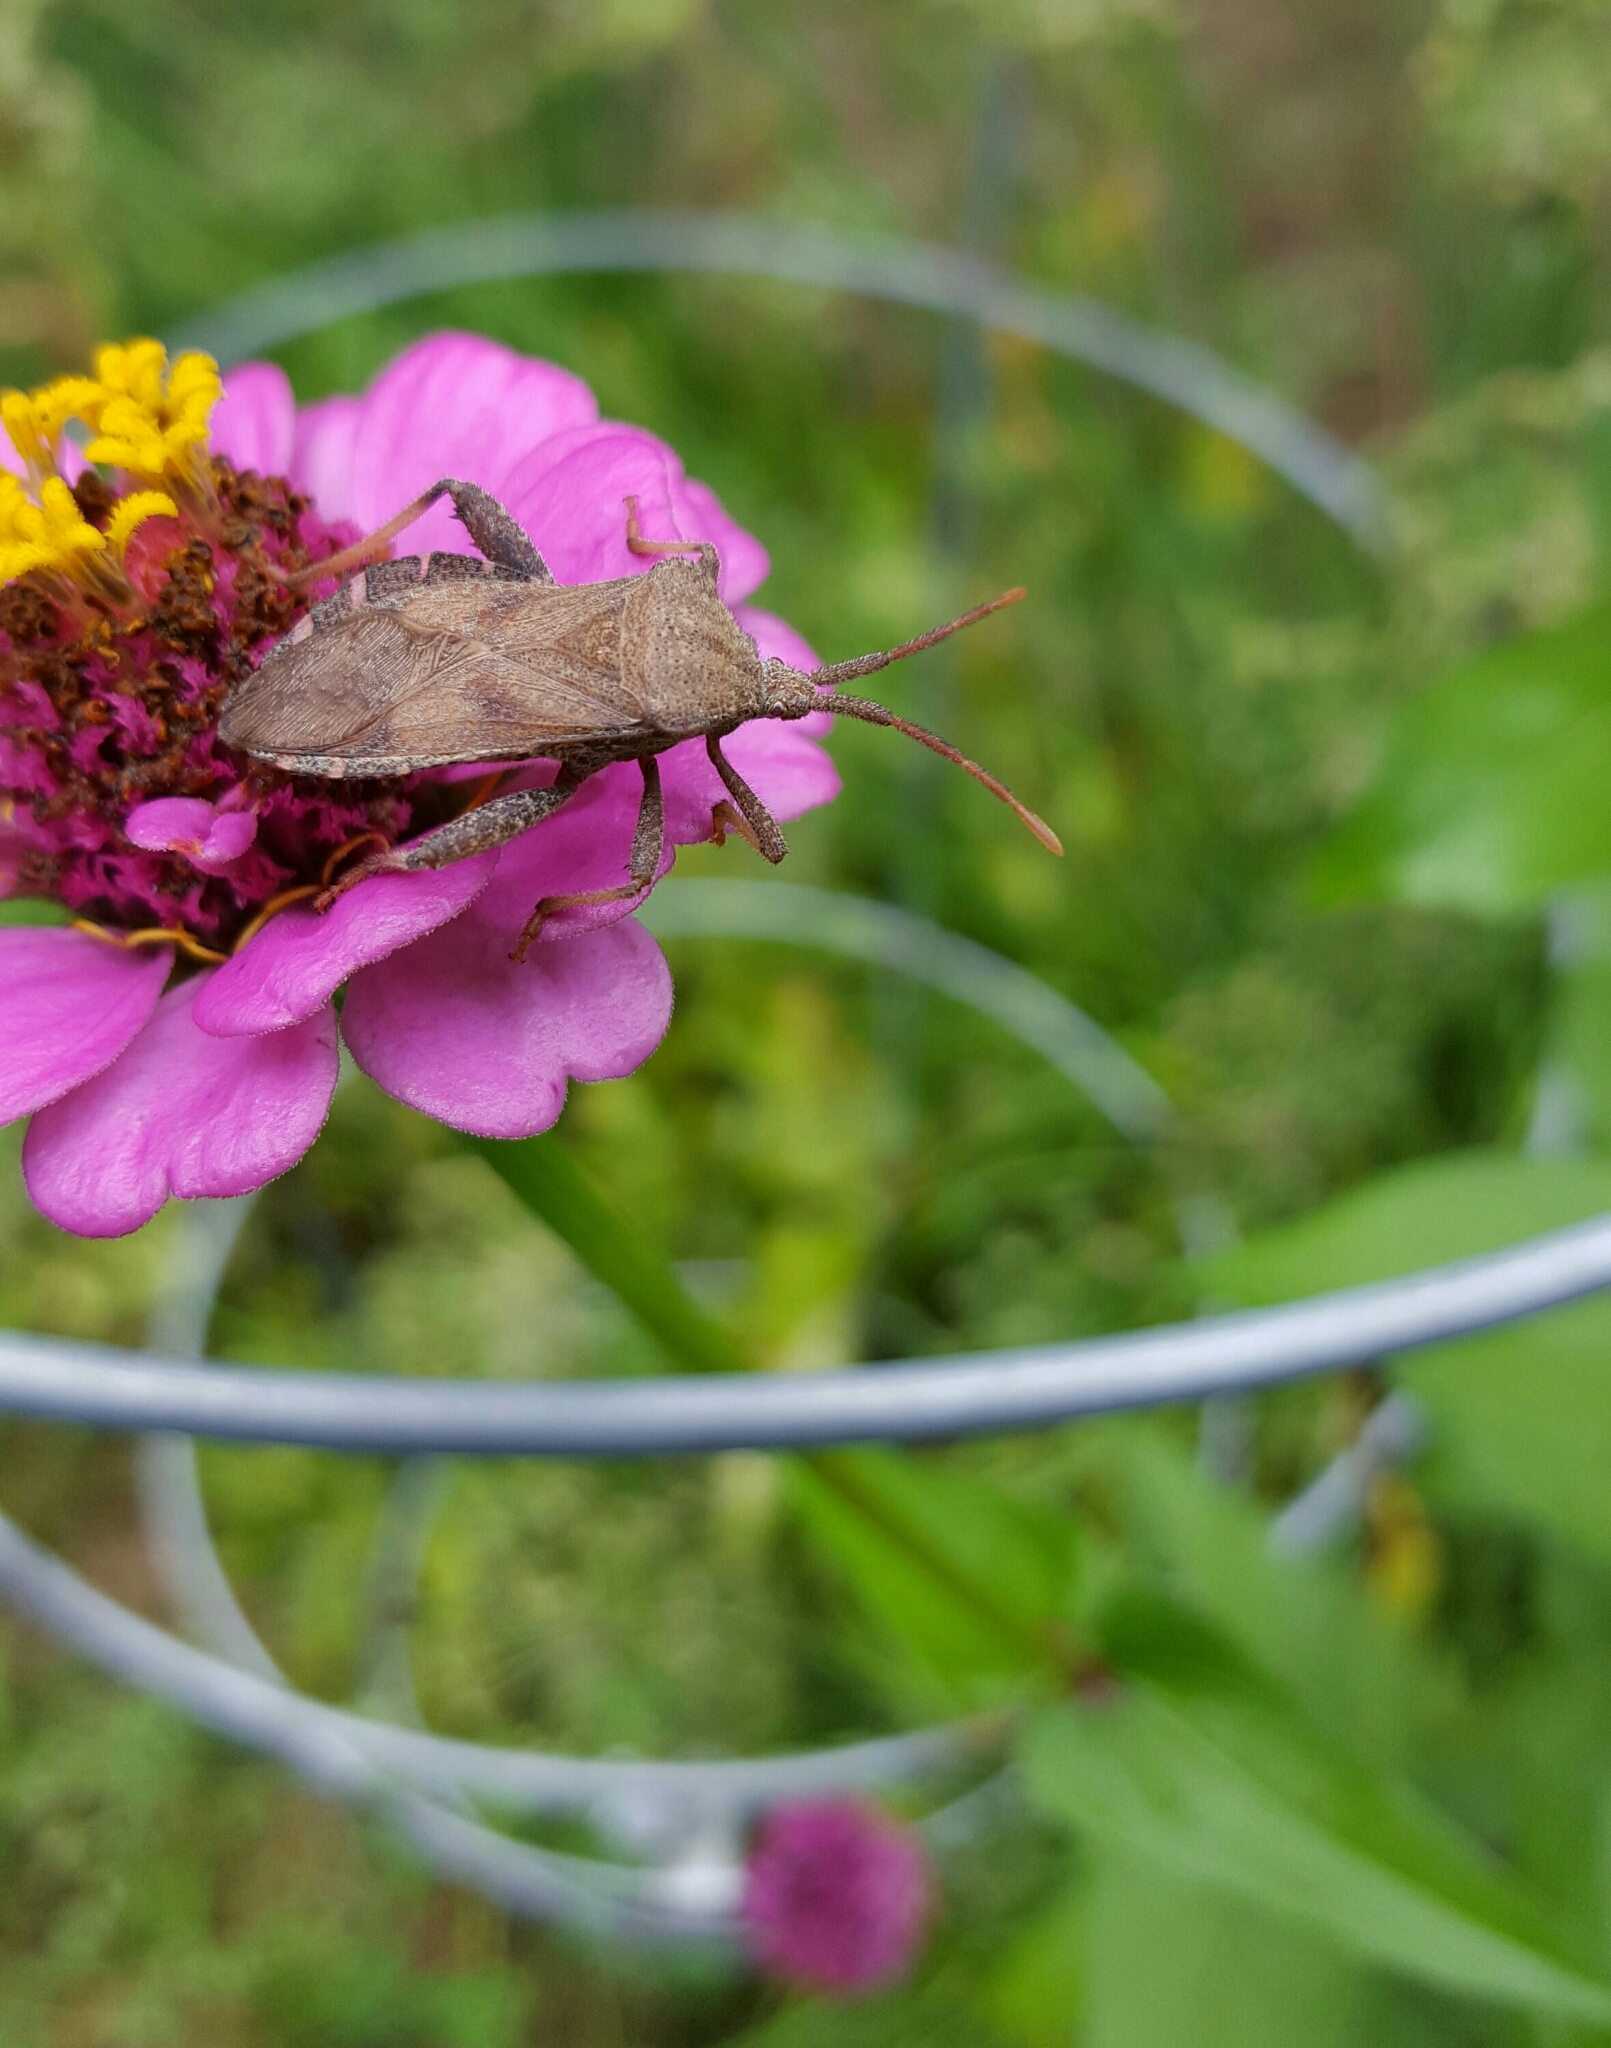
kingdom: Animalia
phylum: Arthropoda
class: Insecta
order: Hemiptera
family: Coreidae
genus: Piezogaster
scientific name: Piezogaster calcarator
